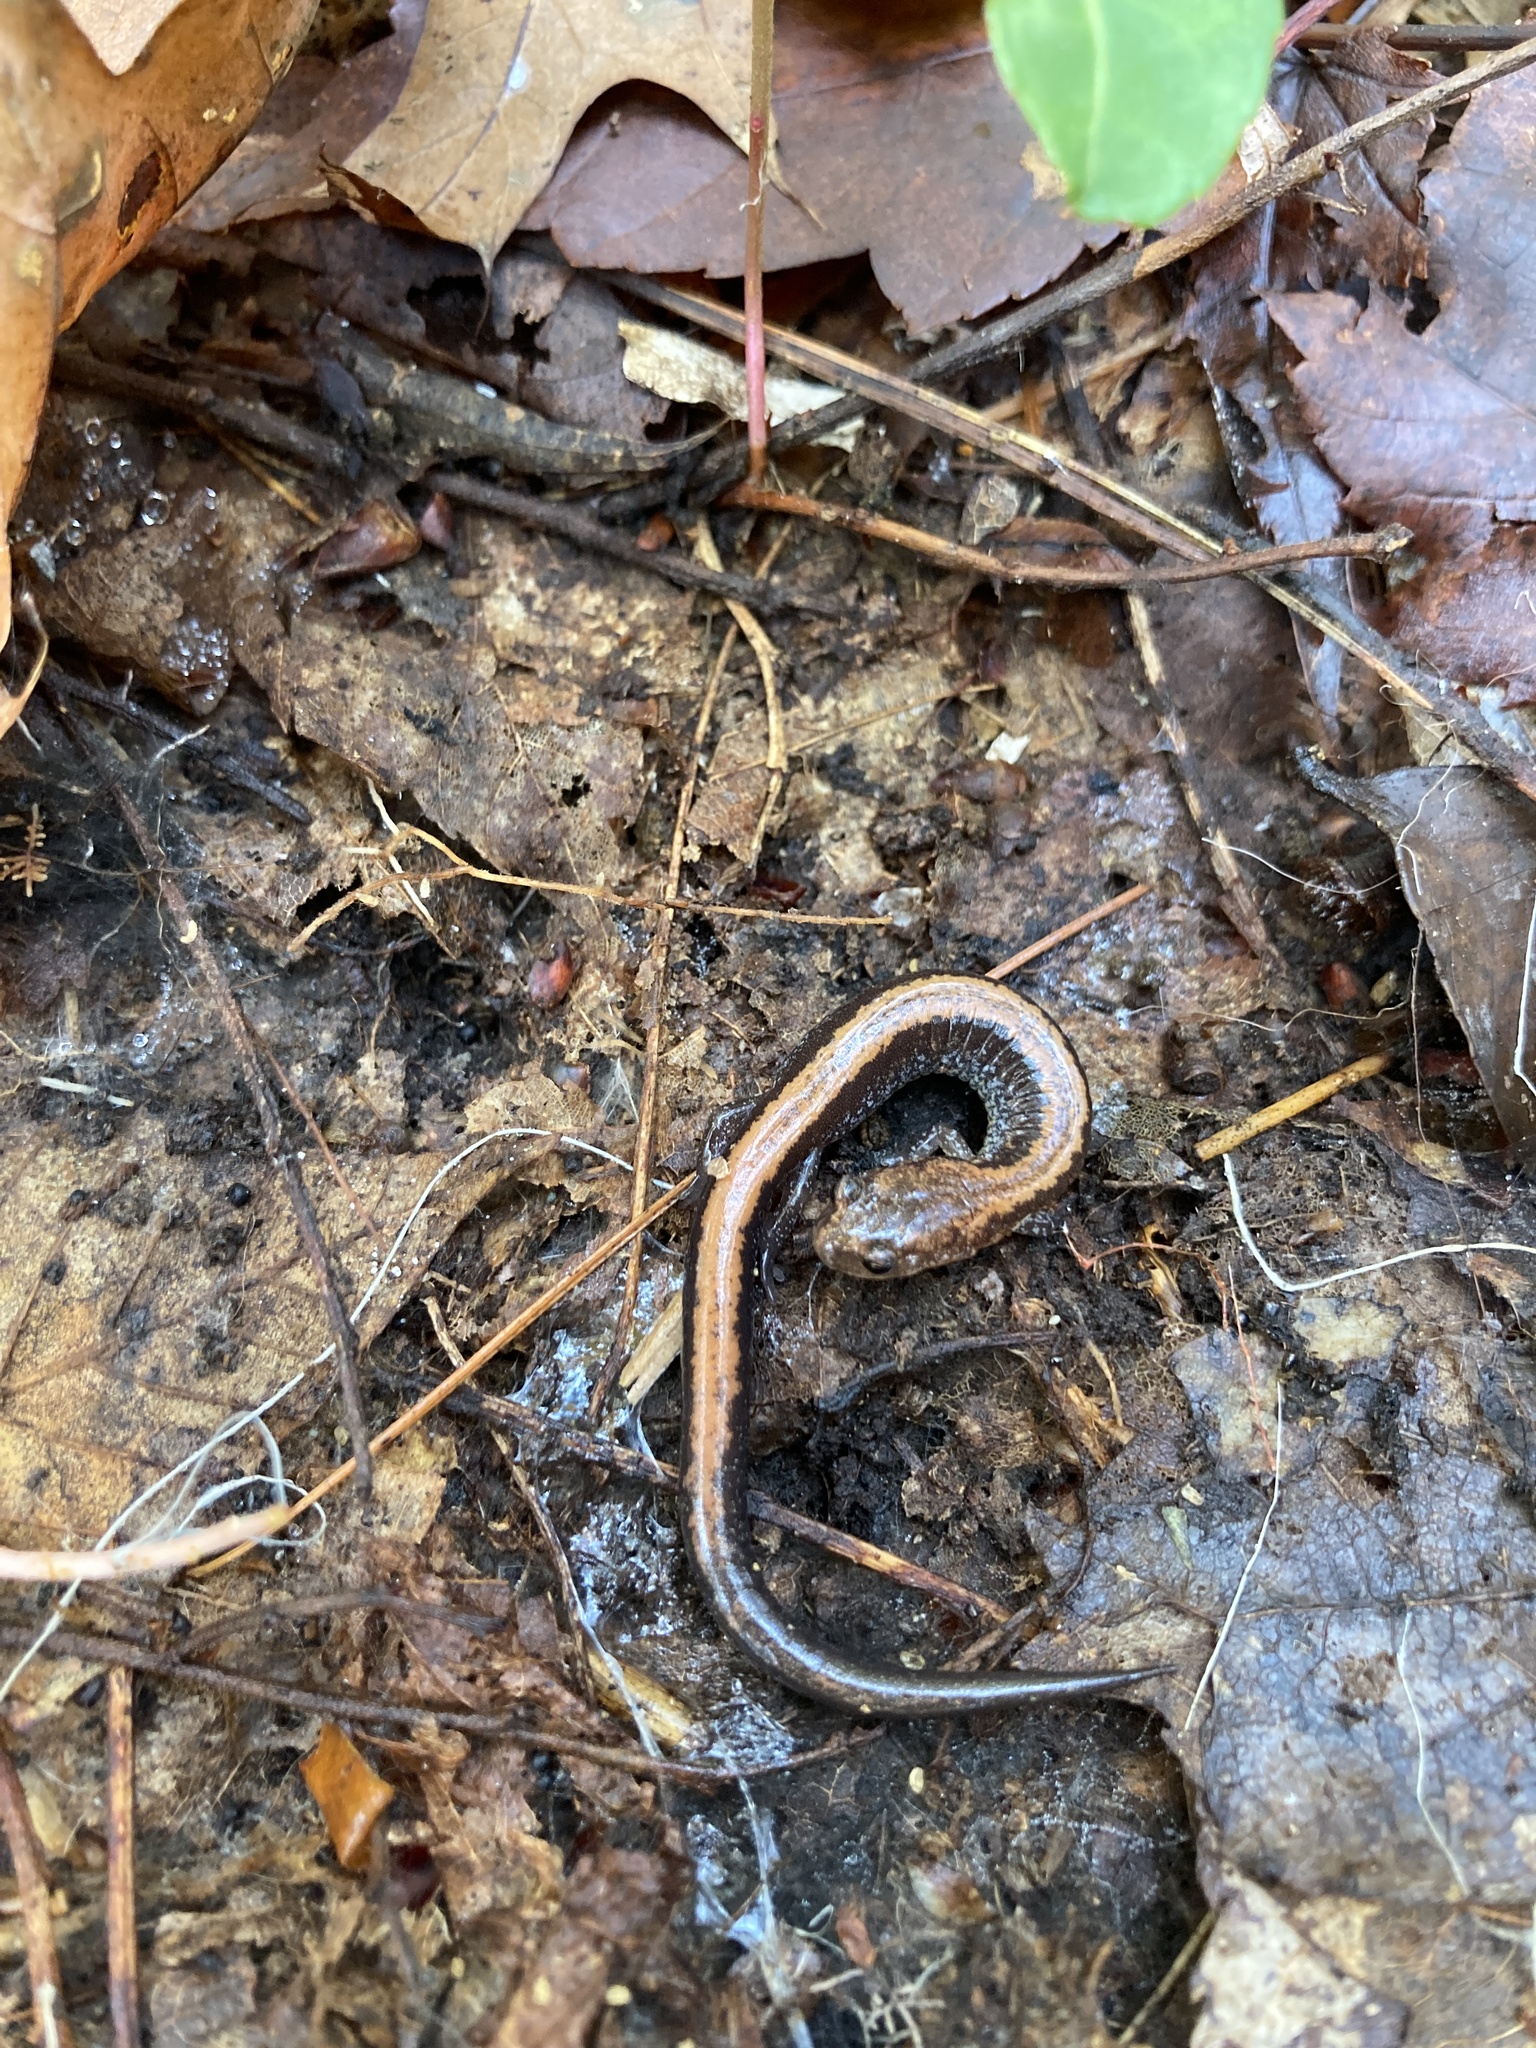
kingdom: Animalia
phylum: Chordata
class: Amphibia
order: Caudata
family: Plethodontidae
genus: Plethodon
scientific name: Plethodon cinereus
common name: Redback salamander
